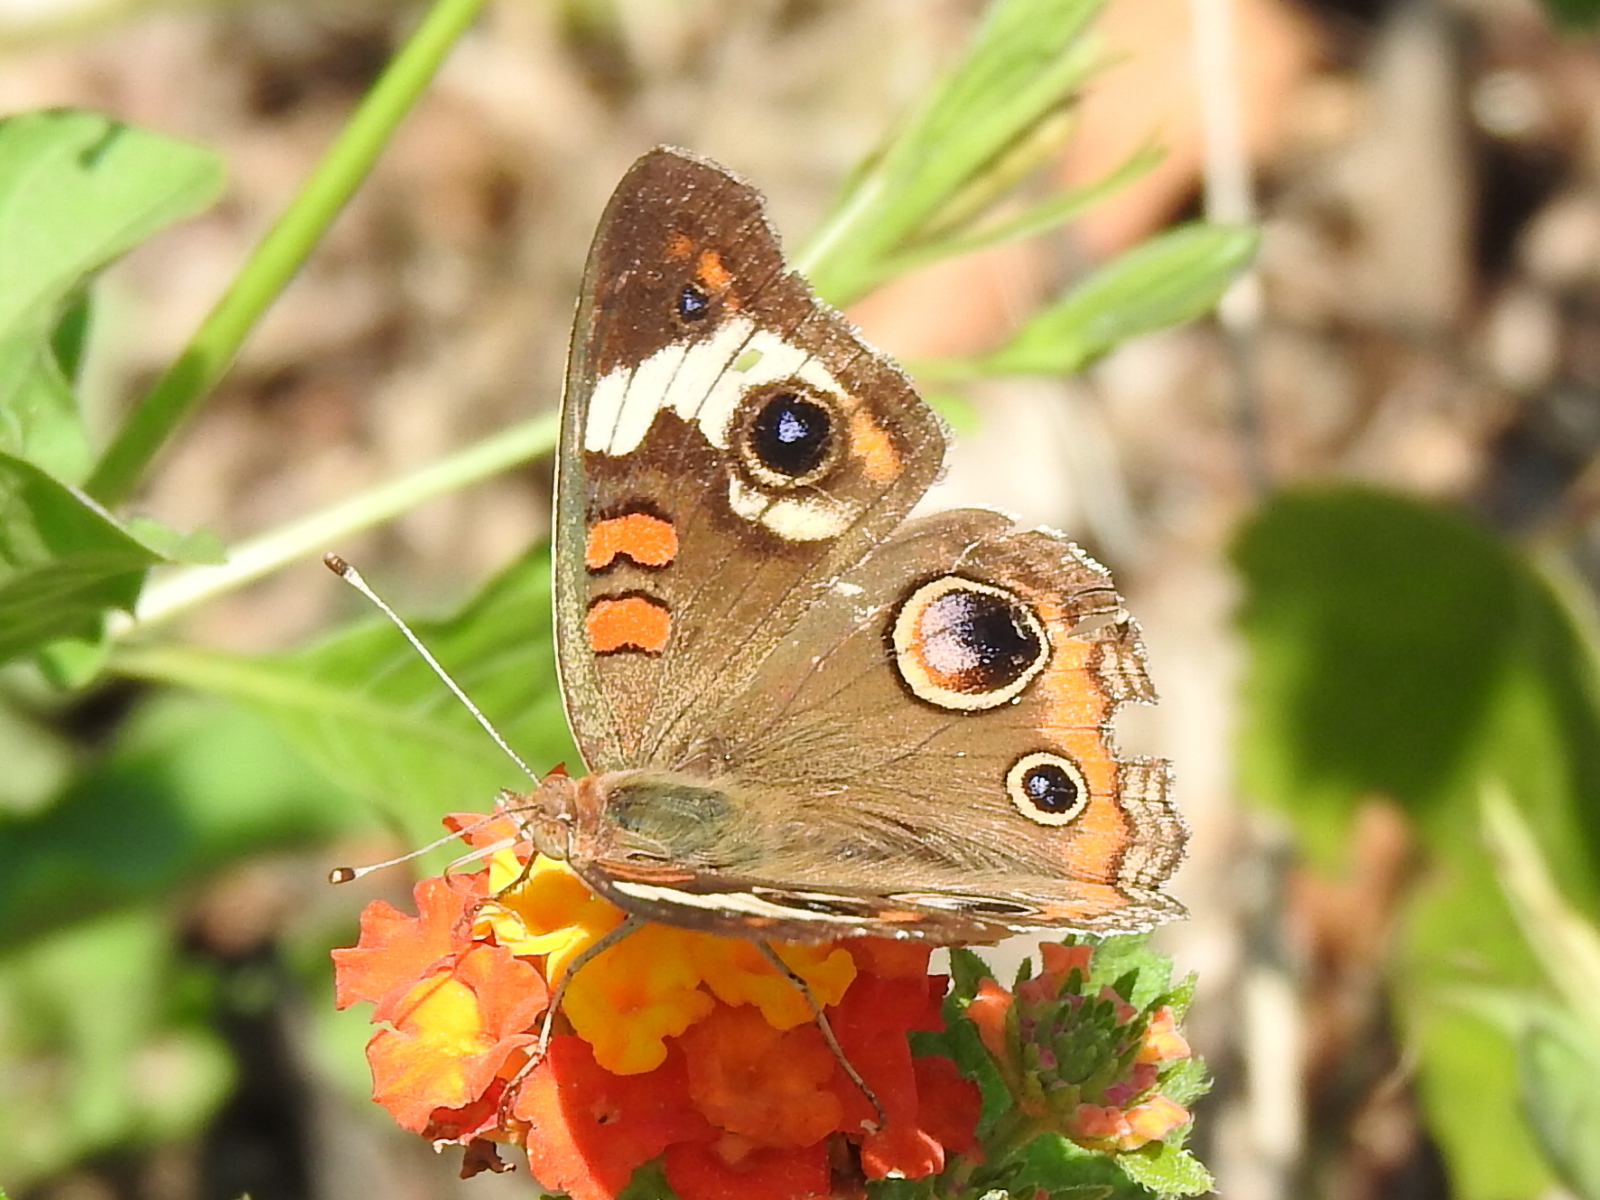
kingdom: Animalia
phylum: Arthropoda
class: Insecta
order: Lepidoptera
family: Nymphalidae
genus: Junonia
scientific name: Junonia coenia
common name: Common buckeye
